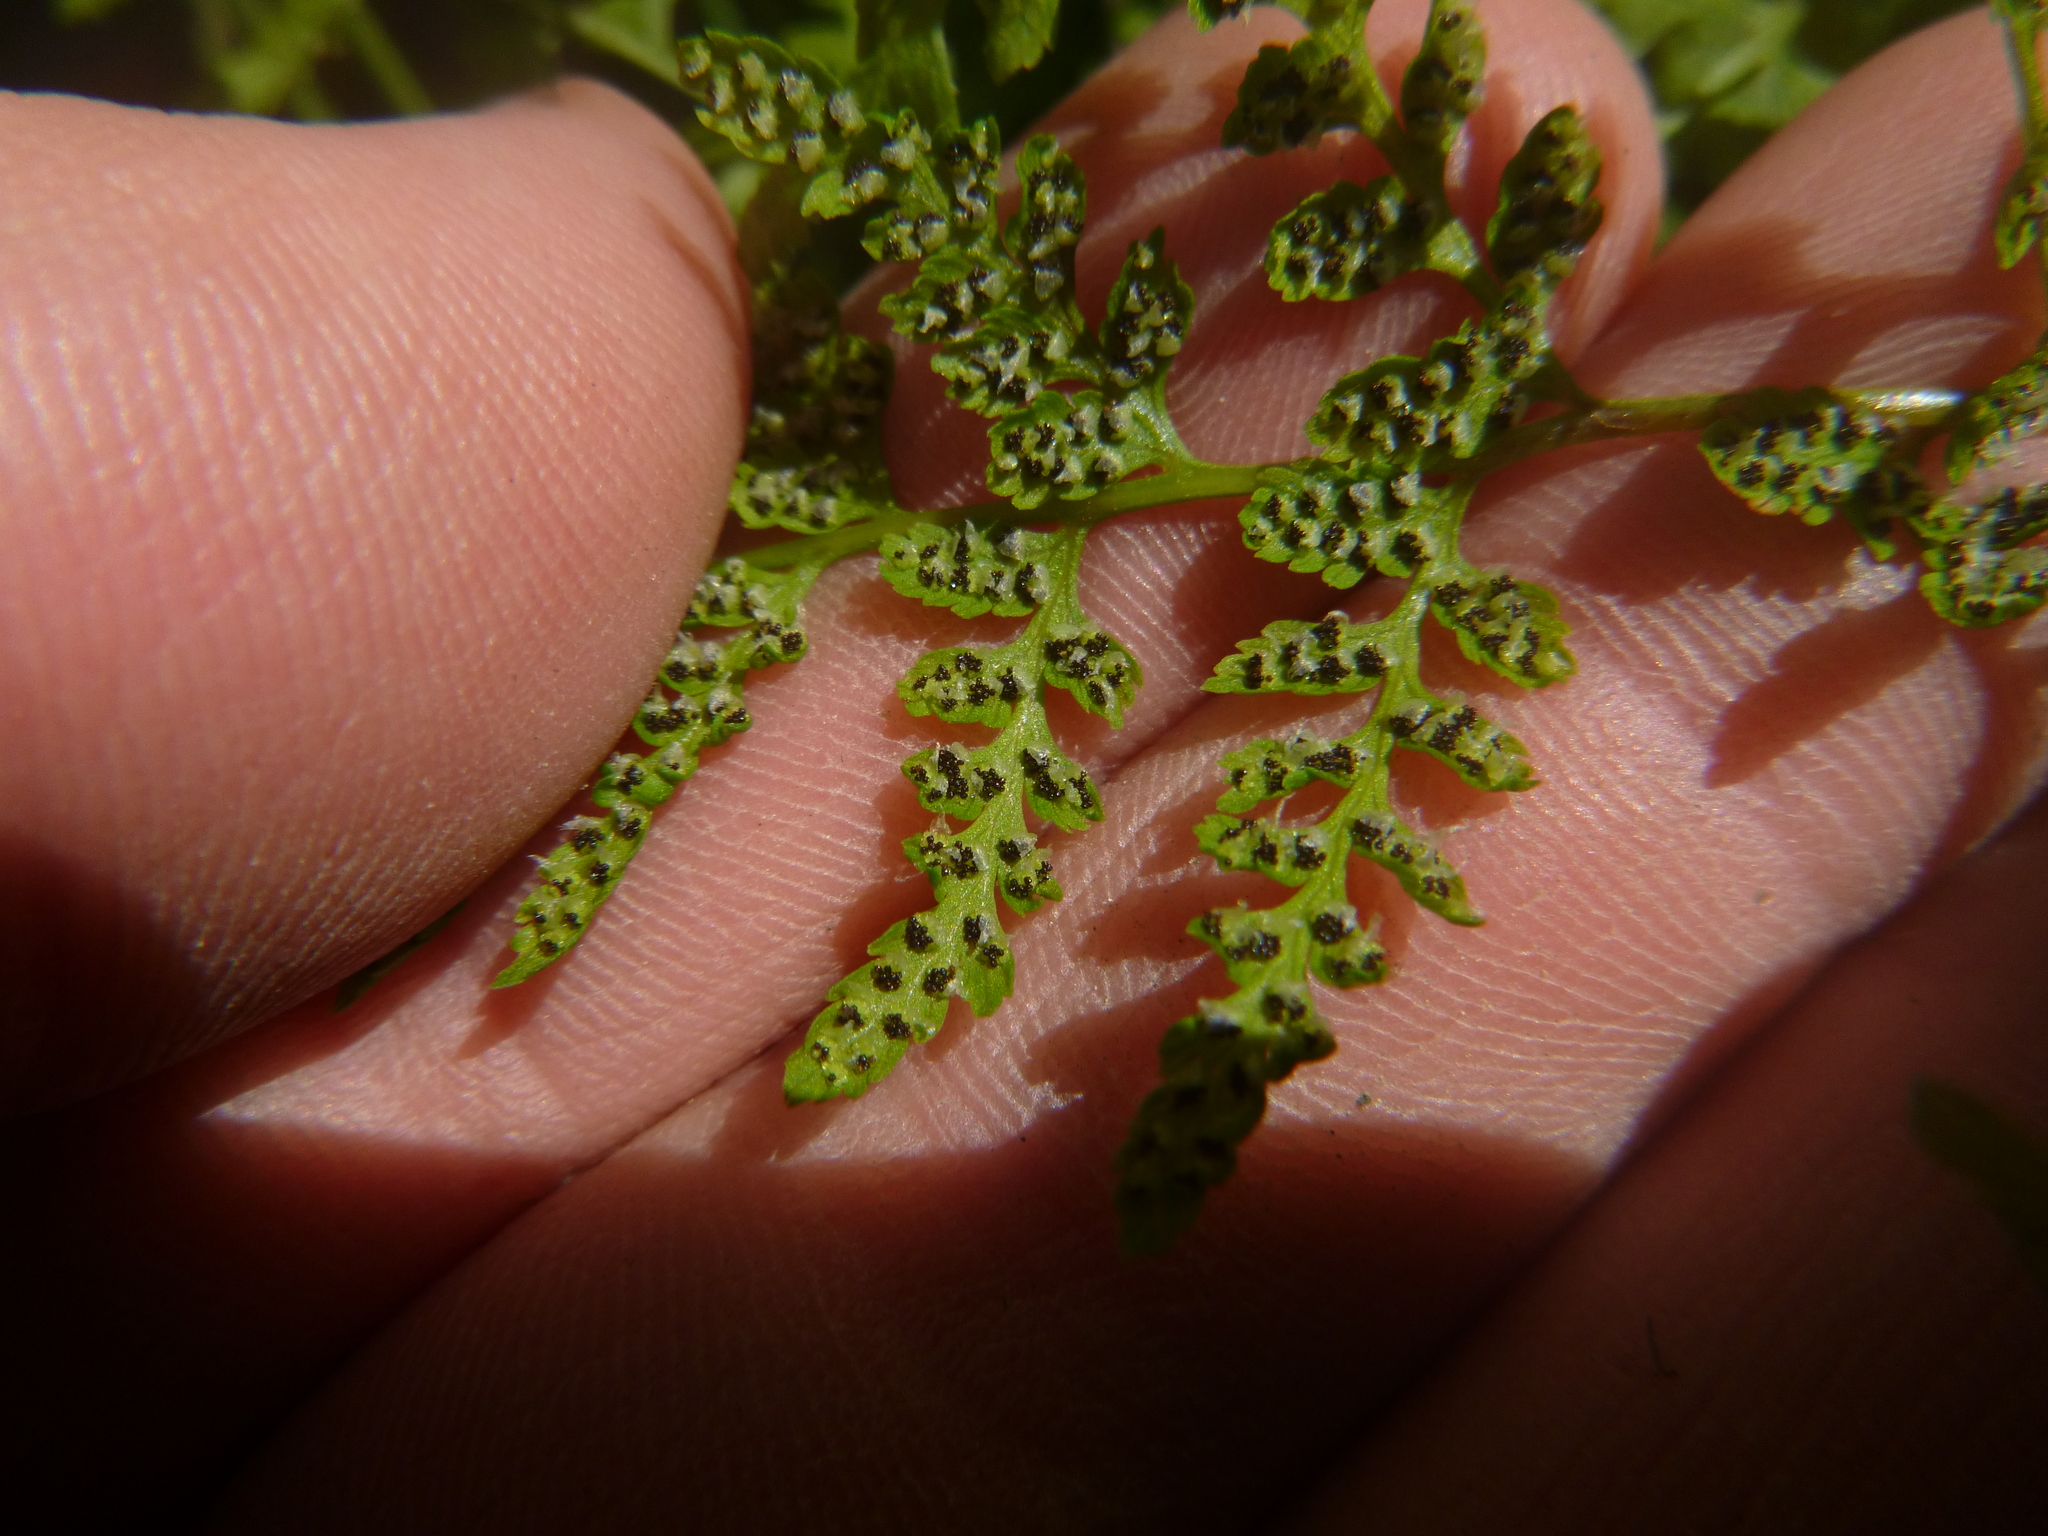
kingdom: Plantae
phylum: Tracheophyta
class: Polypodiopsida
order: Polypodiales
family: Cystopteridaceae
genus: Cystopteris
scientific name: Cystopteris fragilis
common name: Brittle bladder fern
